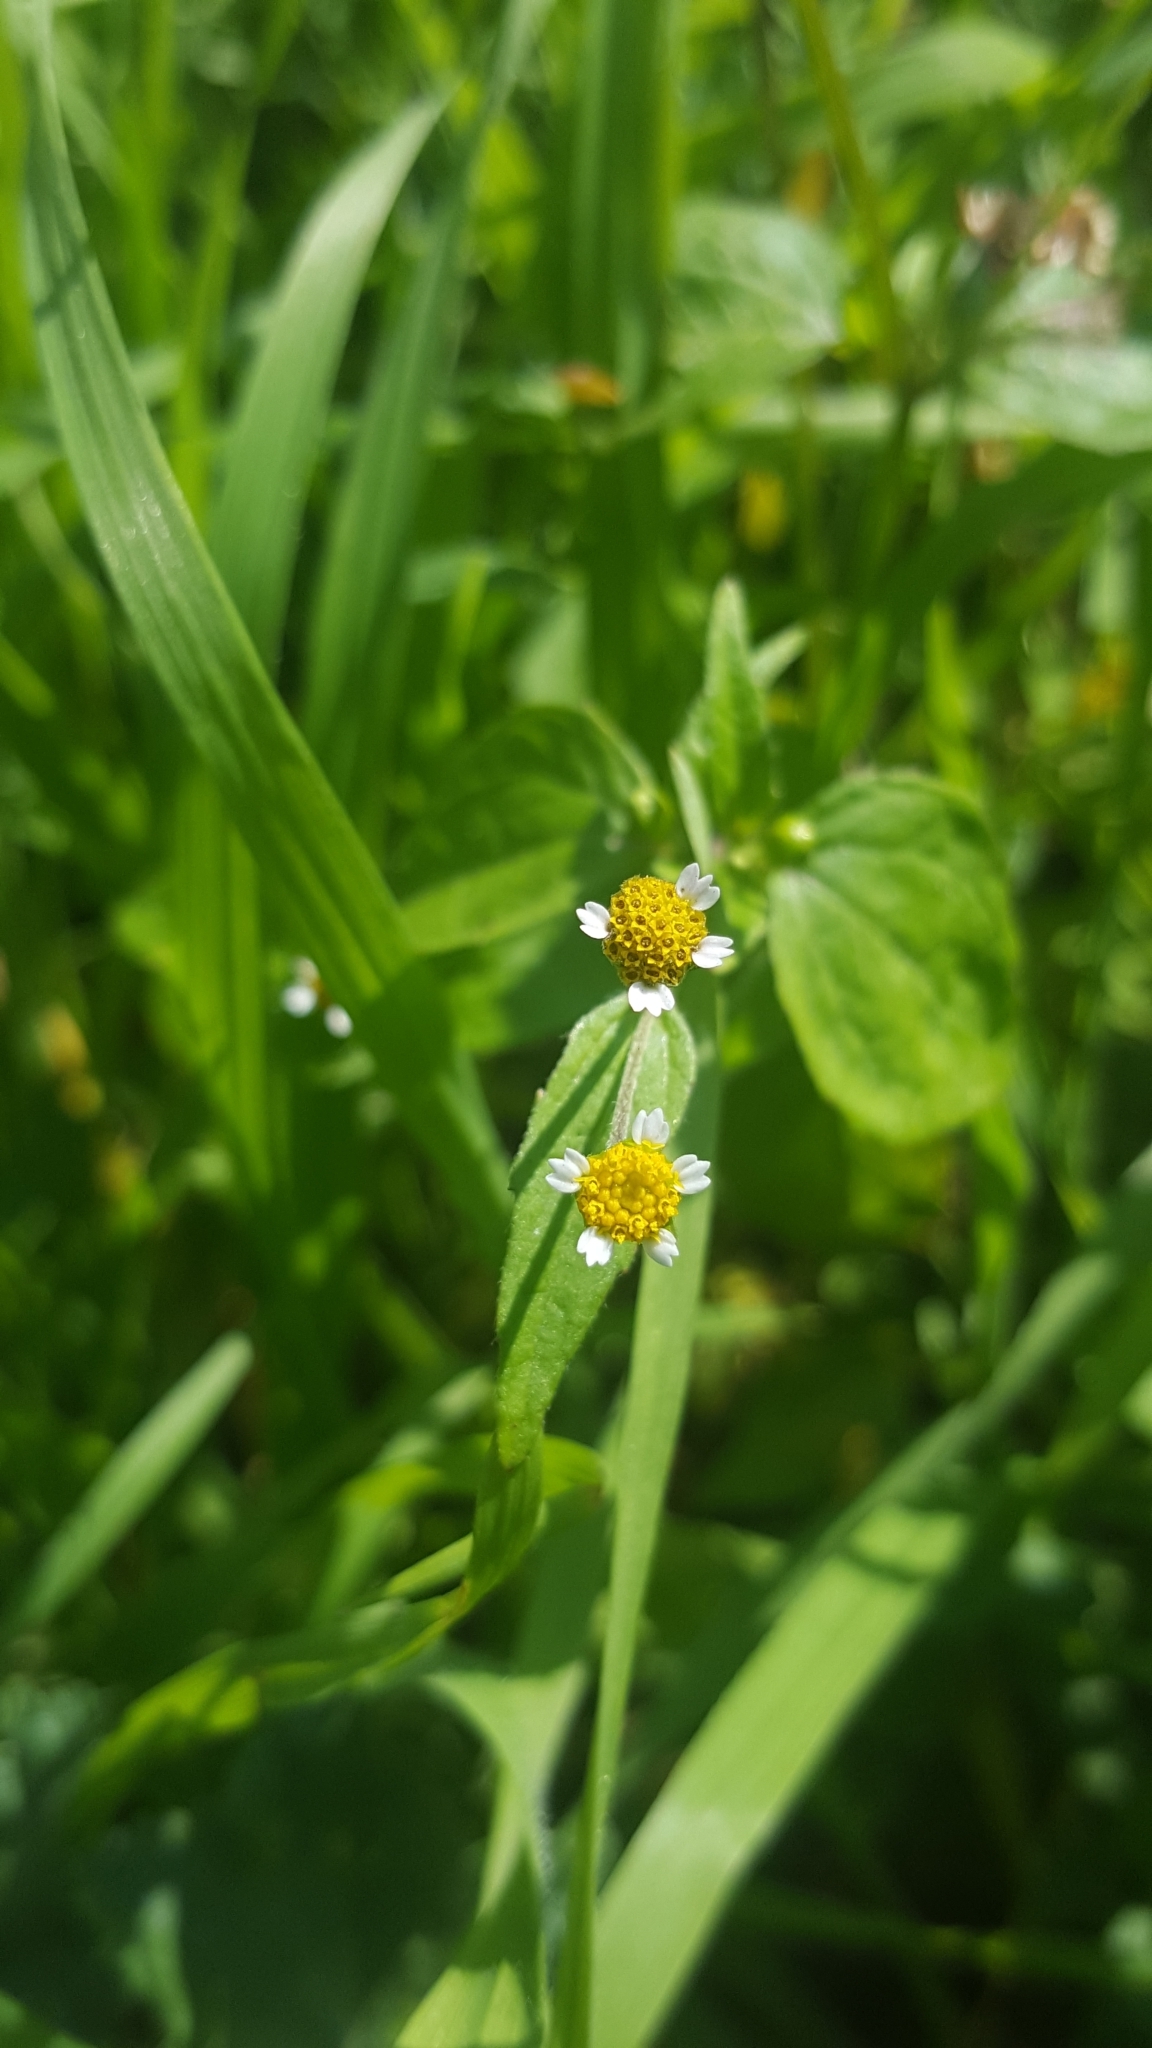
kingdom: Plantae
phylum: Tracheophyta
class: Magnoliopsida
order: Asterales
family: Asteraceae
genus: Galinsoga
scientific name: Galinsoga parviflora
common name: Gallant soldier
